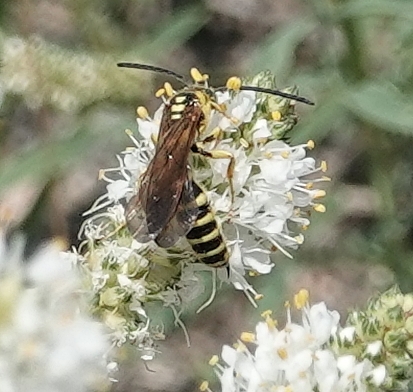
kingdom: Animalia
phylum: Arthropoda
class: Insecta
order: Hymenoptera
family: Tiphiidae
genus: Myzinum
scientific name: Myzinum quinquecinctum
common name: Five-banded thynnid wasp
